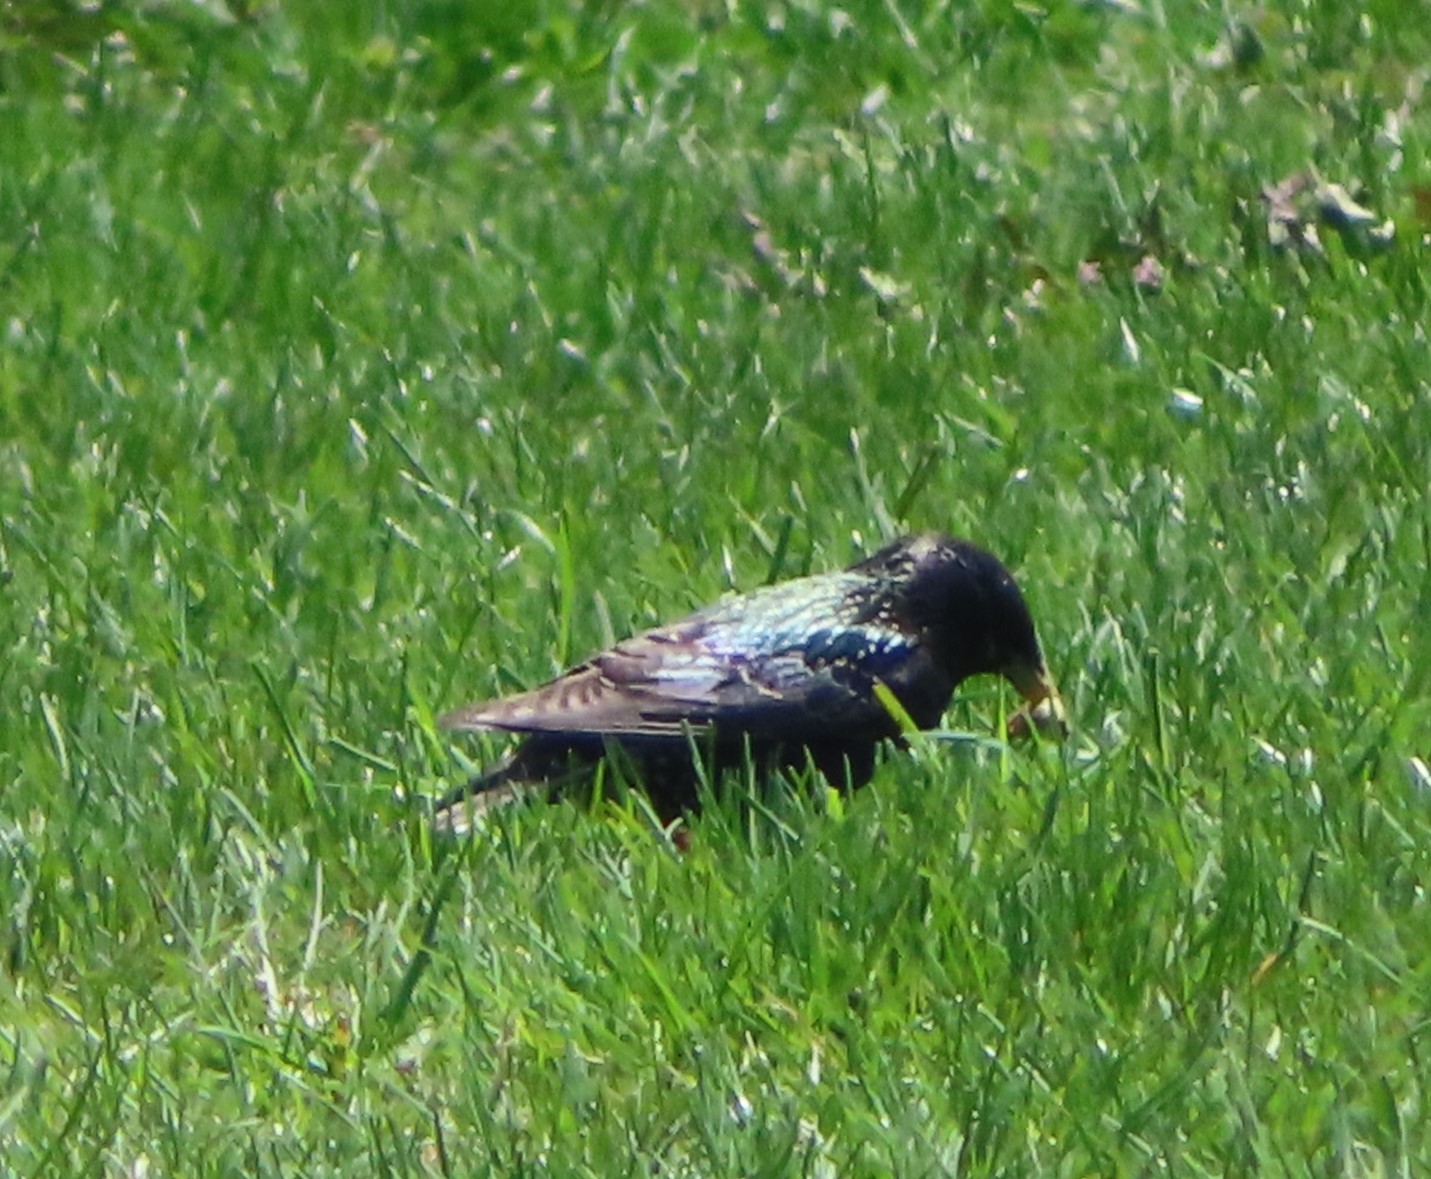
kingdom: Animalia
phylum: Chordata
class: Aves
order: Passeriformes
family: Sturnidae
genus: Sturnus
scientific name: Sturnus vulgaris
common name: Common starling
